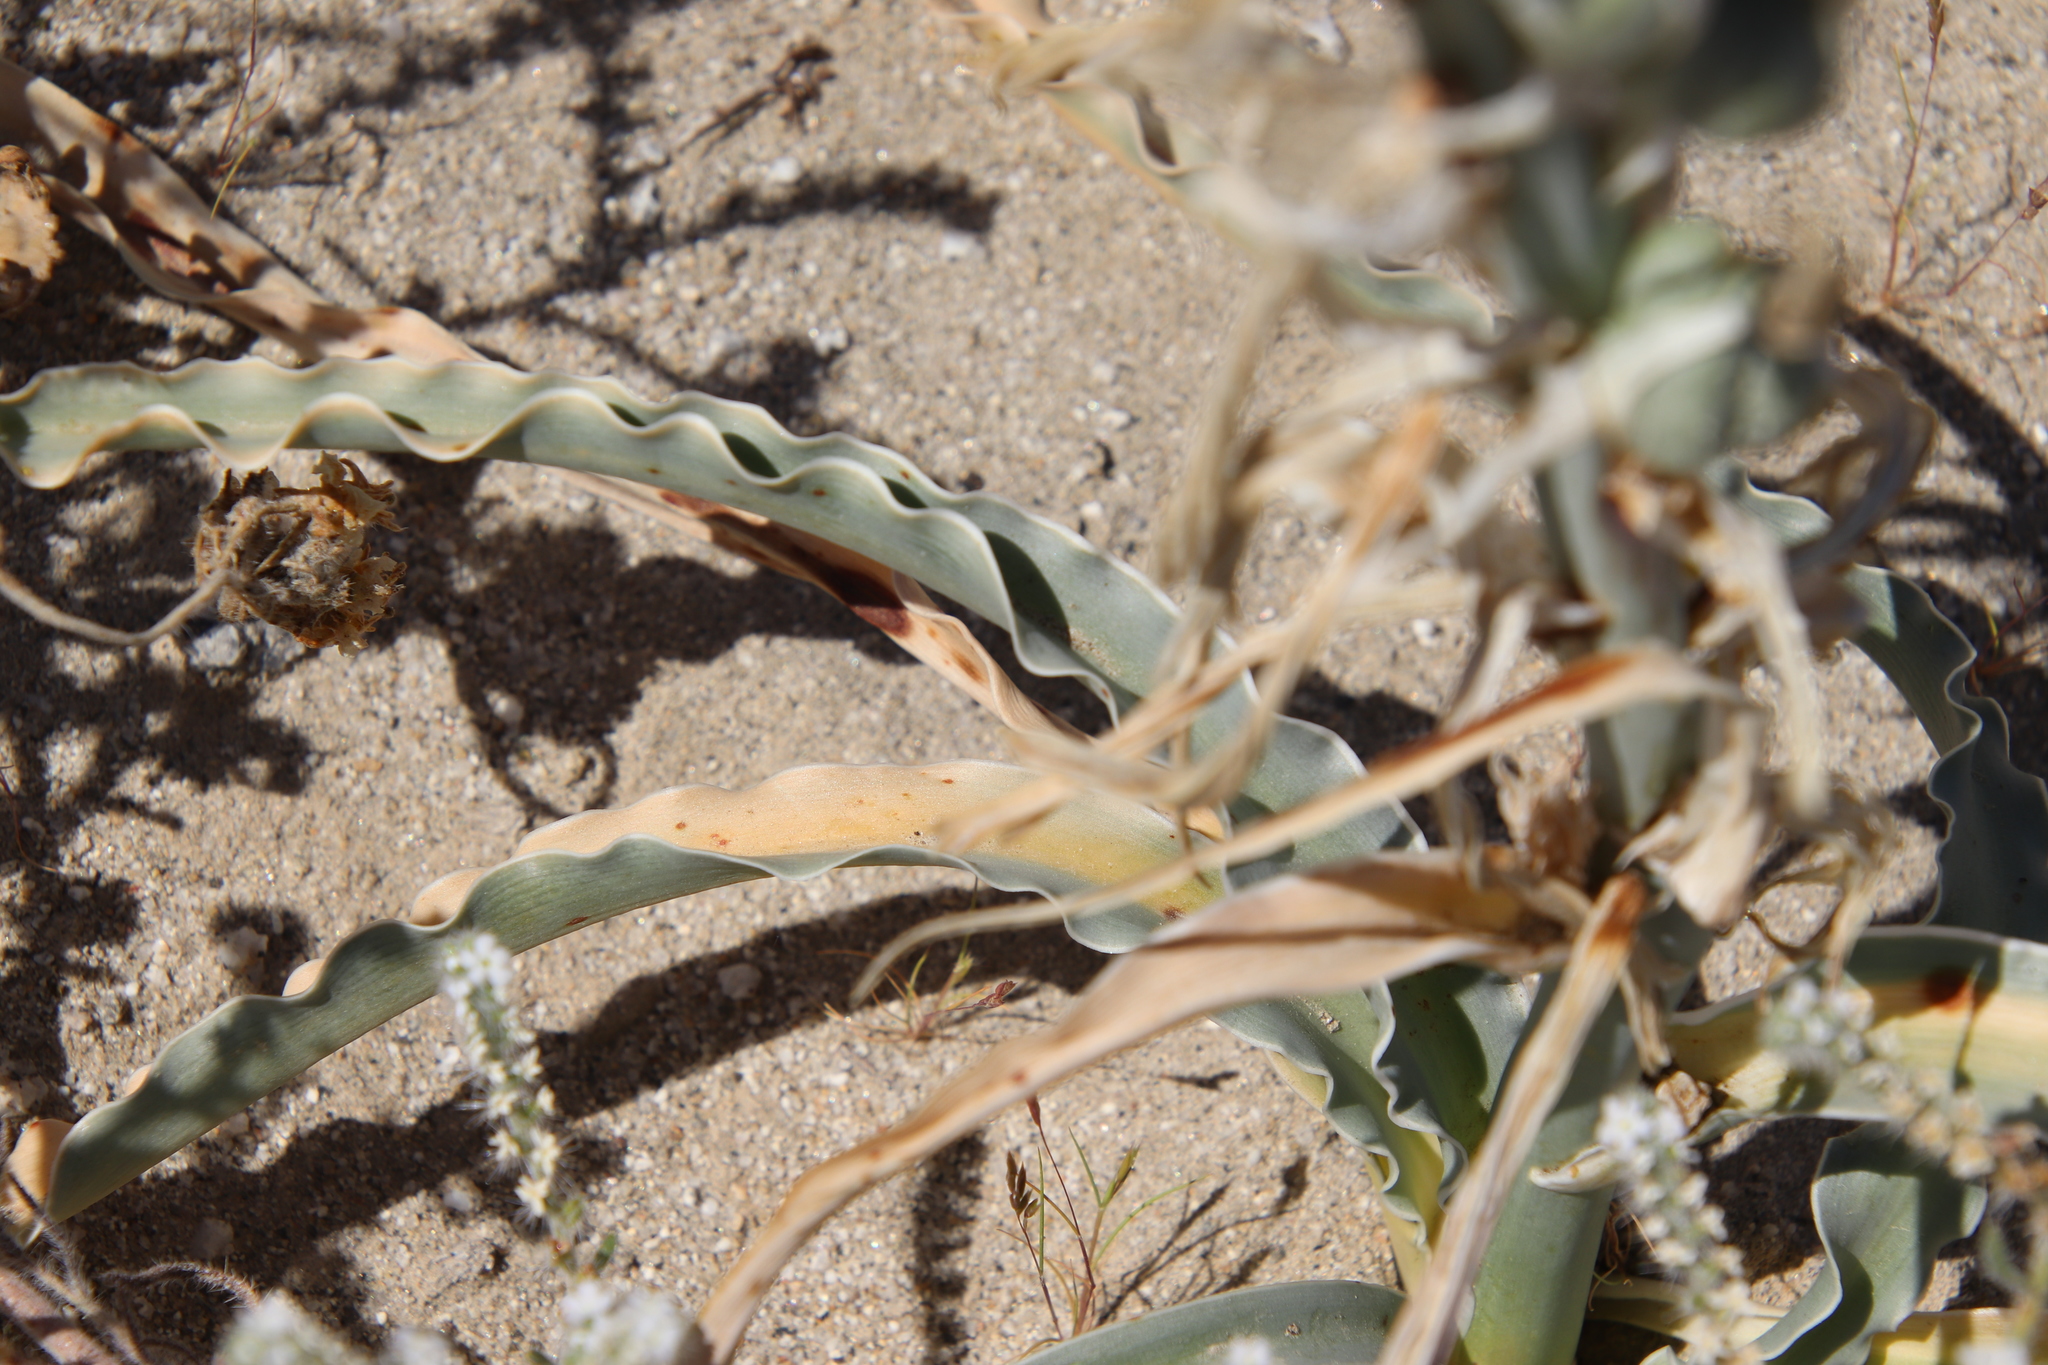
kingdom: Plantae
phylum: Tracheophyta
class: Liliopsida
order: Asparagales
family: Asparagaceae
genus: Hesperocallis
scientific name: Hesperocallis undulata
